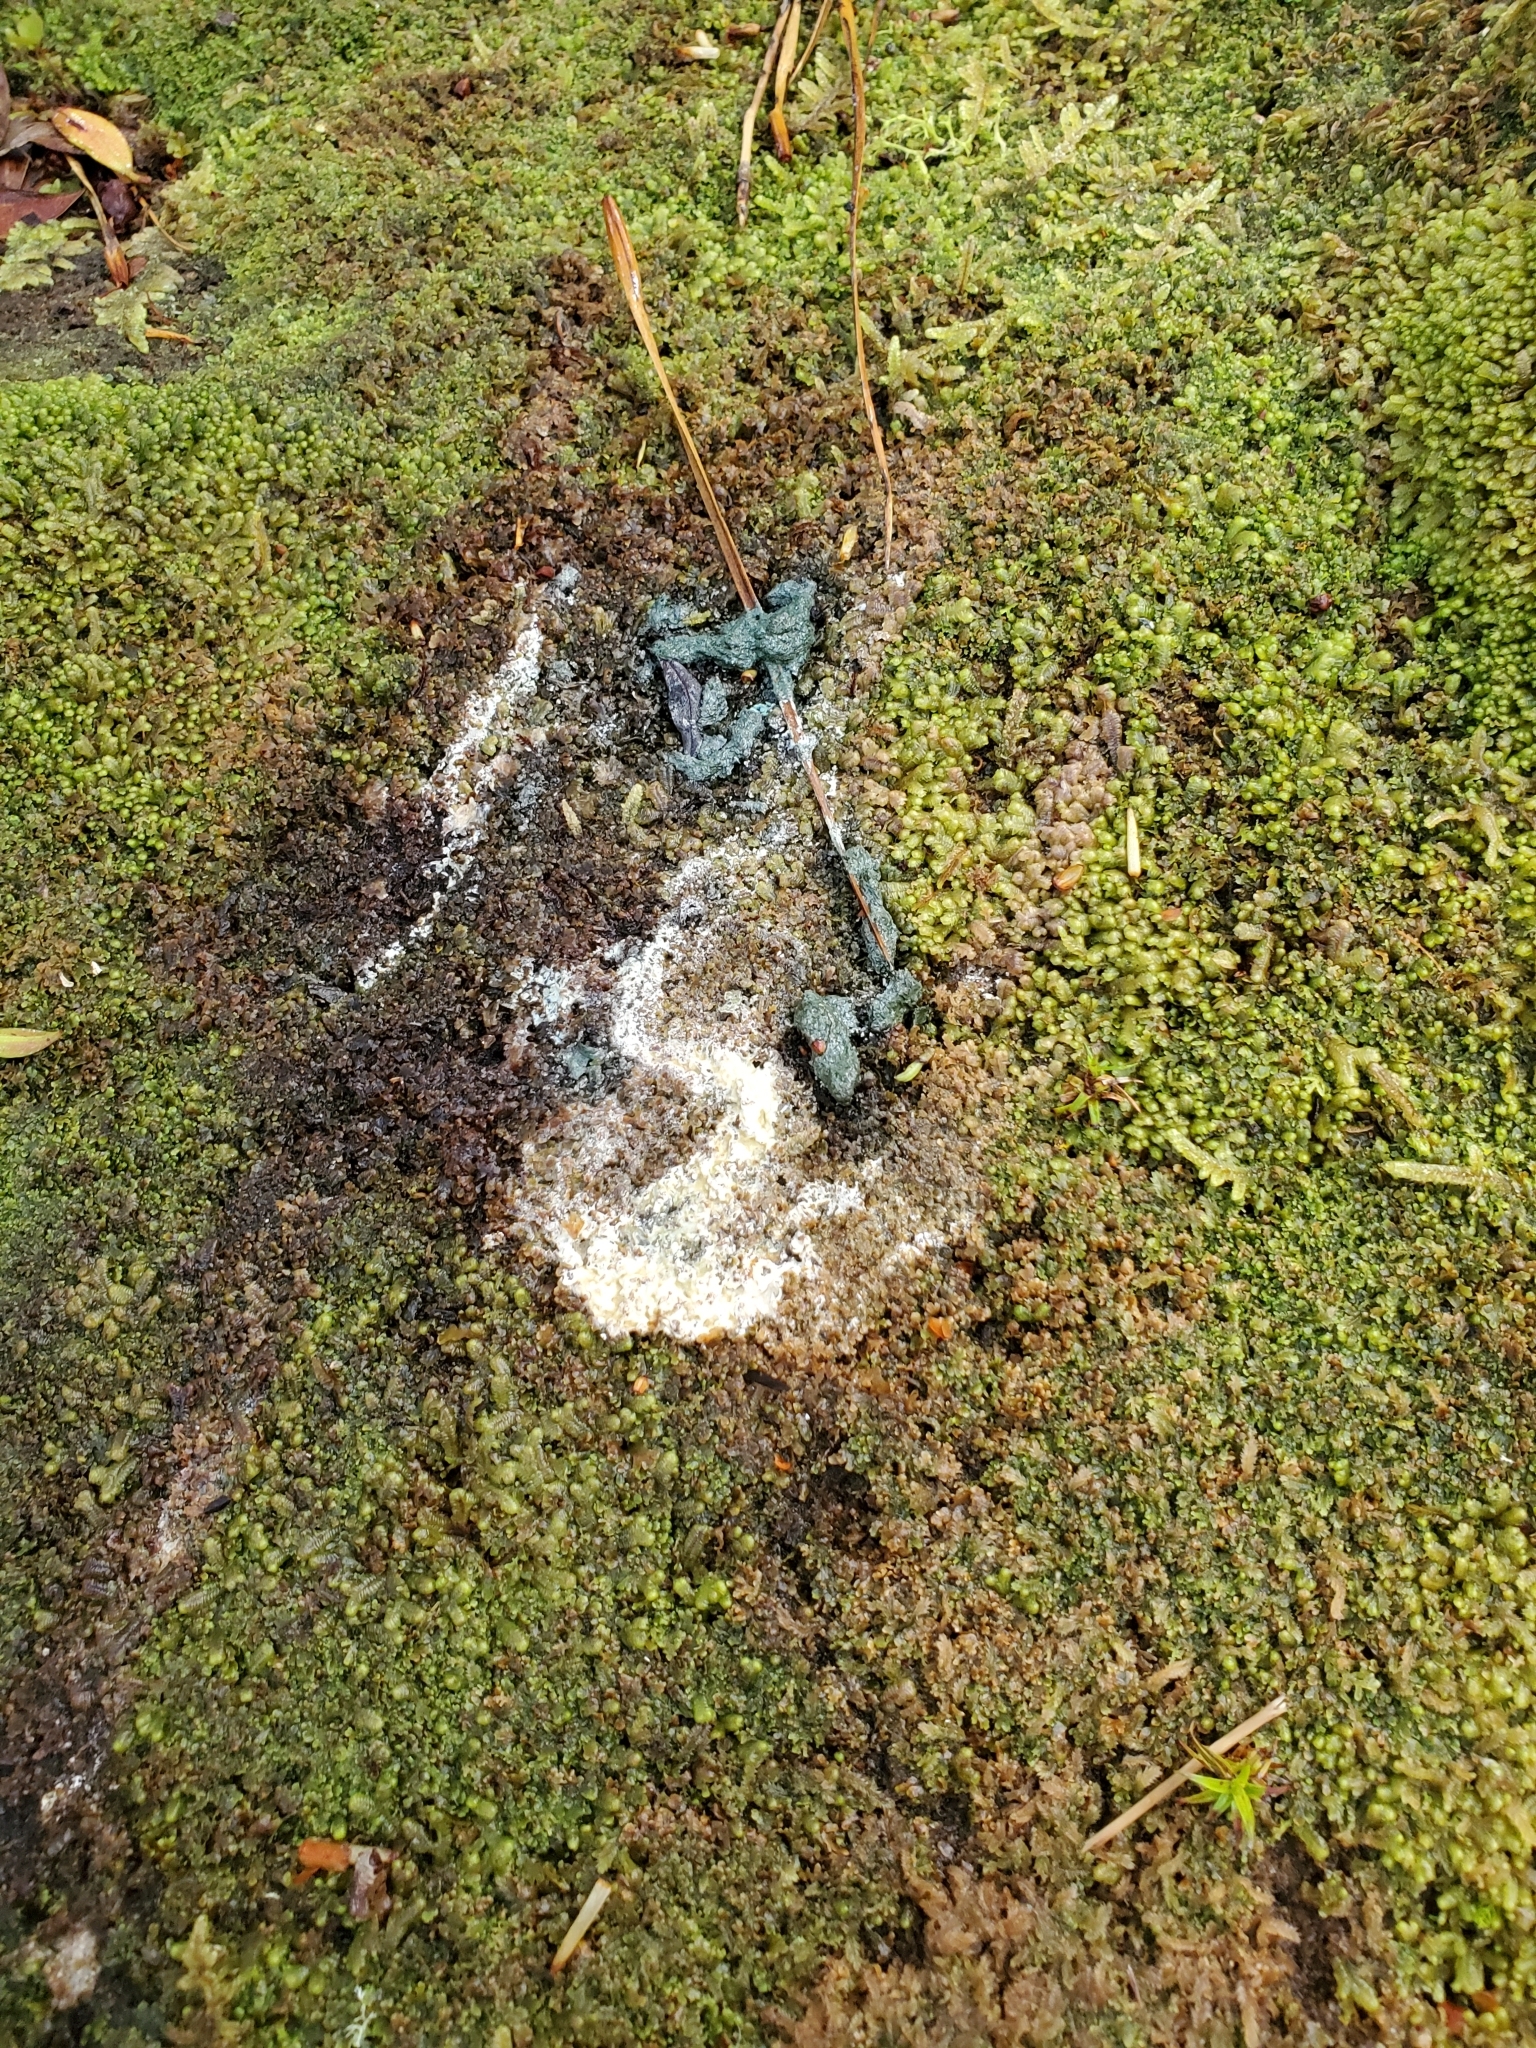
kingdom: Animalia
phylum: Chordata
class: Aves
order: Sphenisciformes
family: Spheniscidae
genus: Megadyptes
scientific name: Megadyptes antipodes
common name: Yellow-eyed penguin
